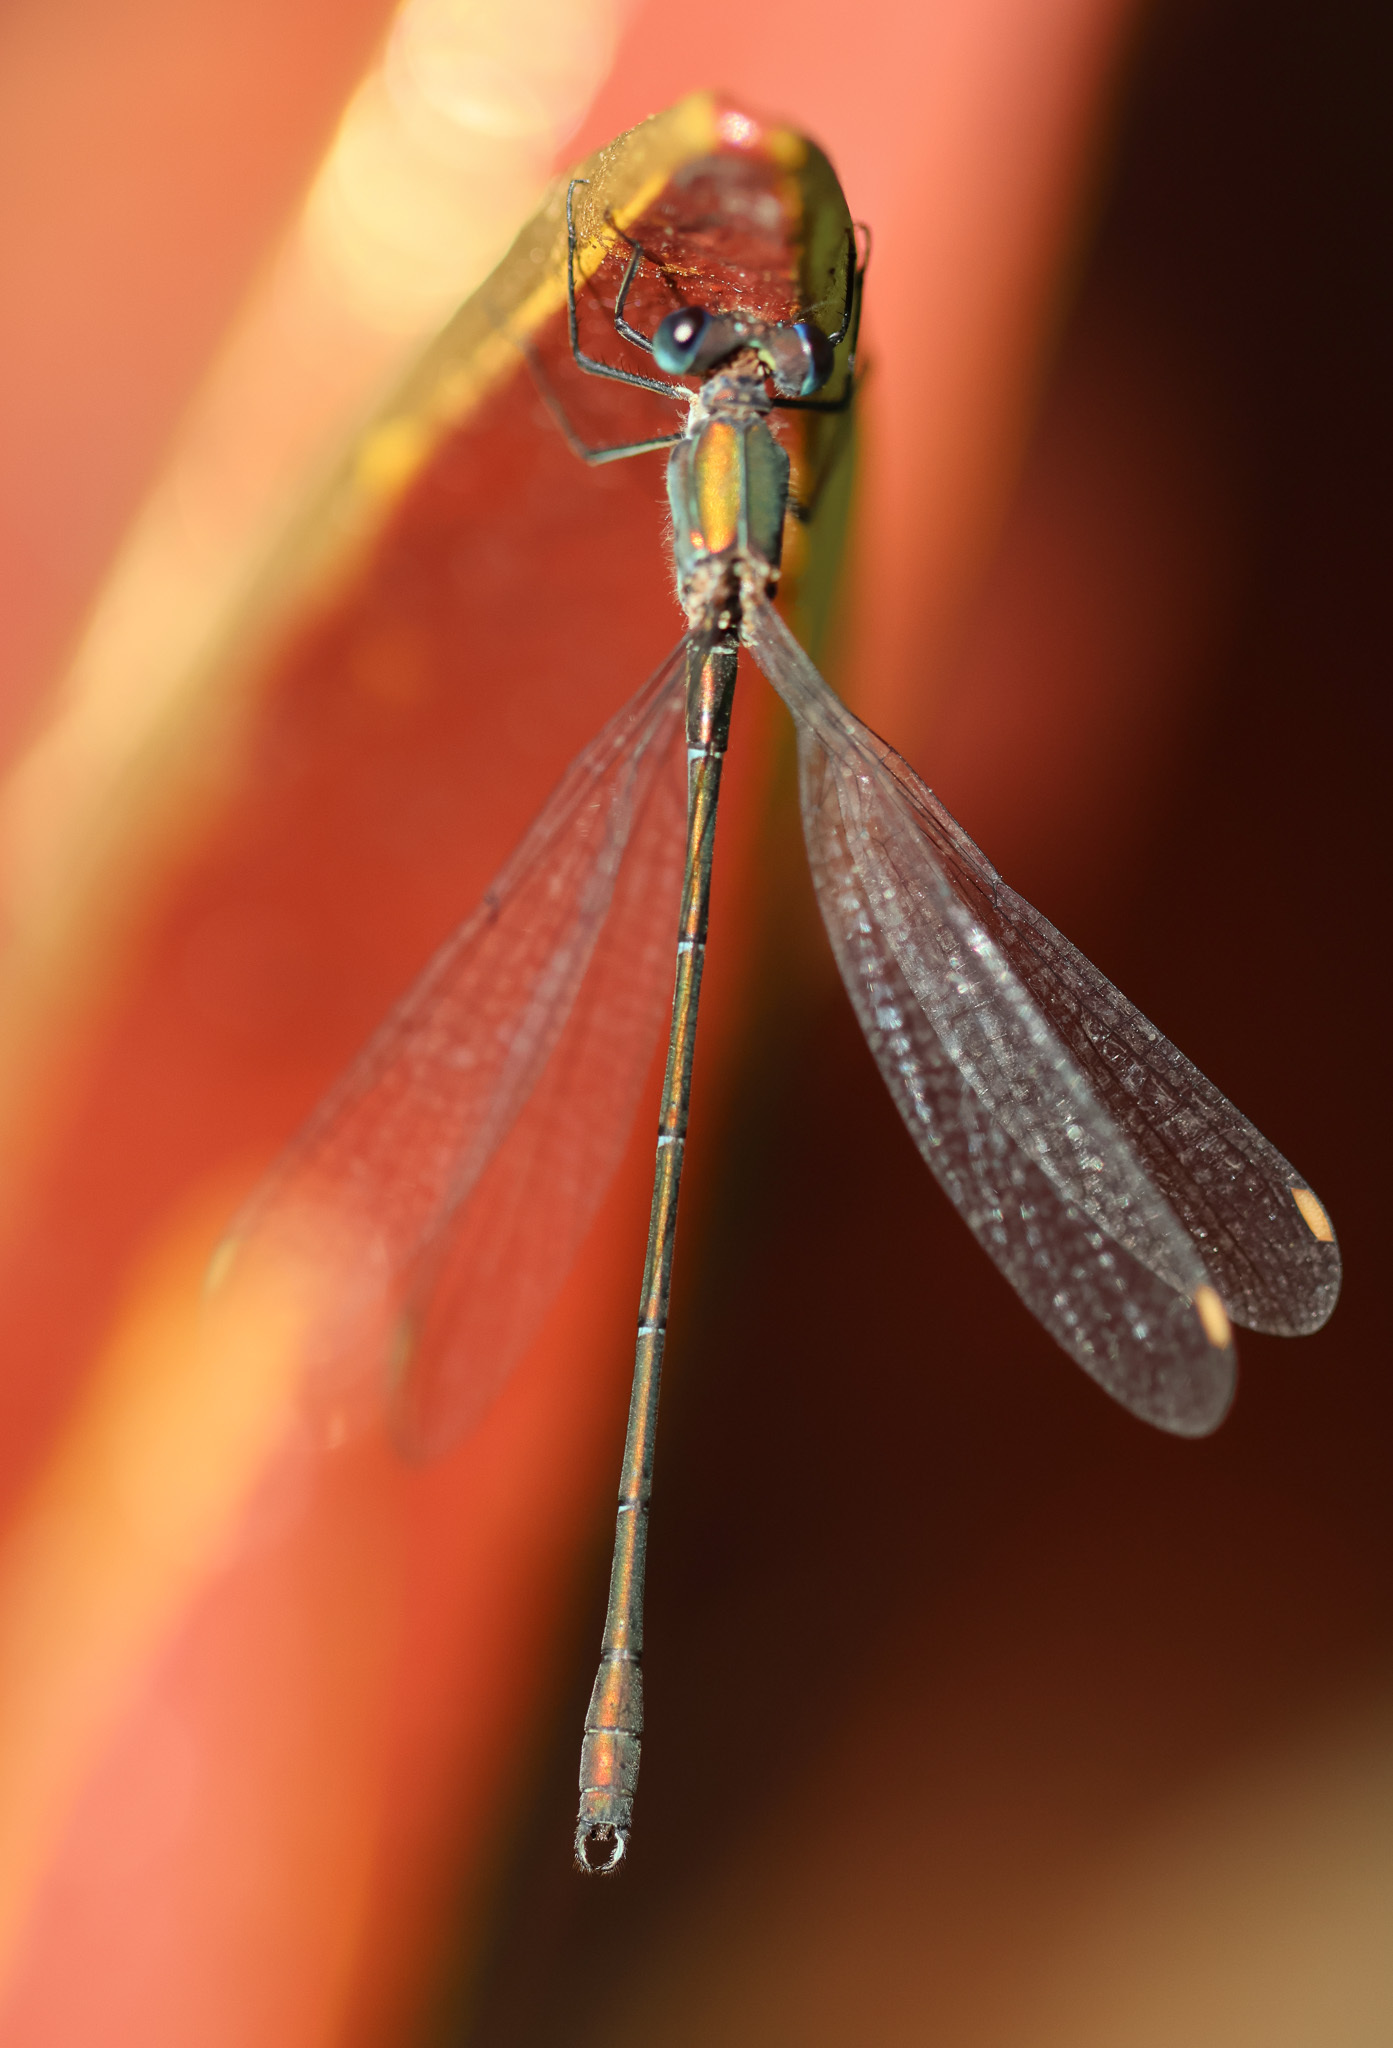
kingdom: Animalia
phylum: Arthropoda
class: Insecta
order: Odonata
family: Lestidae
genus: Chalcolestes
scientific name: Chalcolestes viridis
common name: Green emerald damselfly
